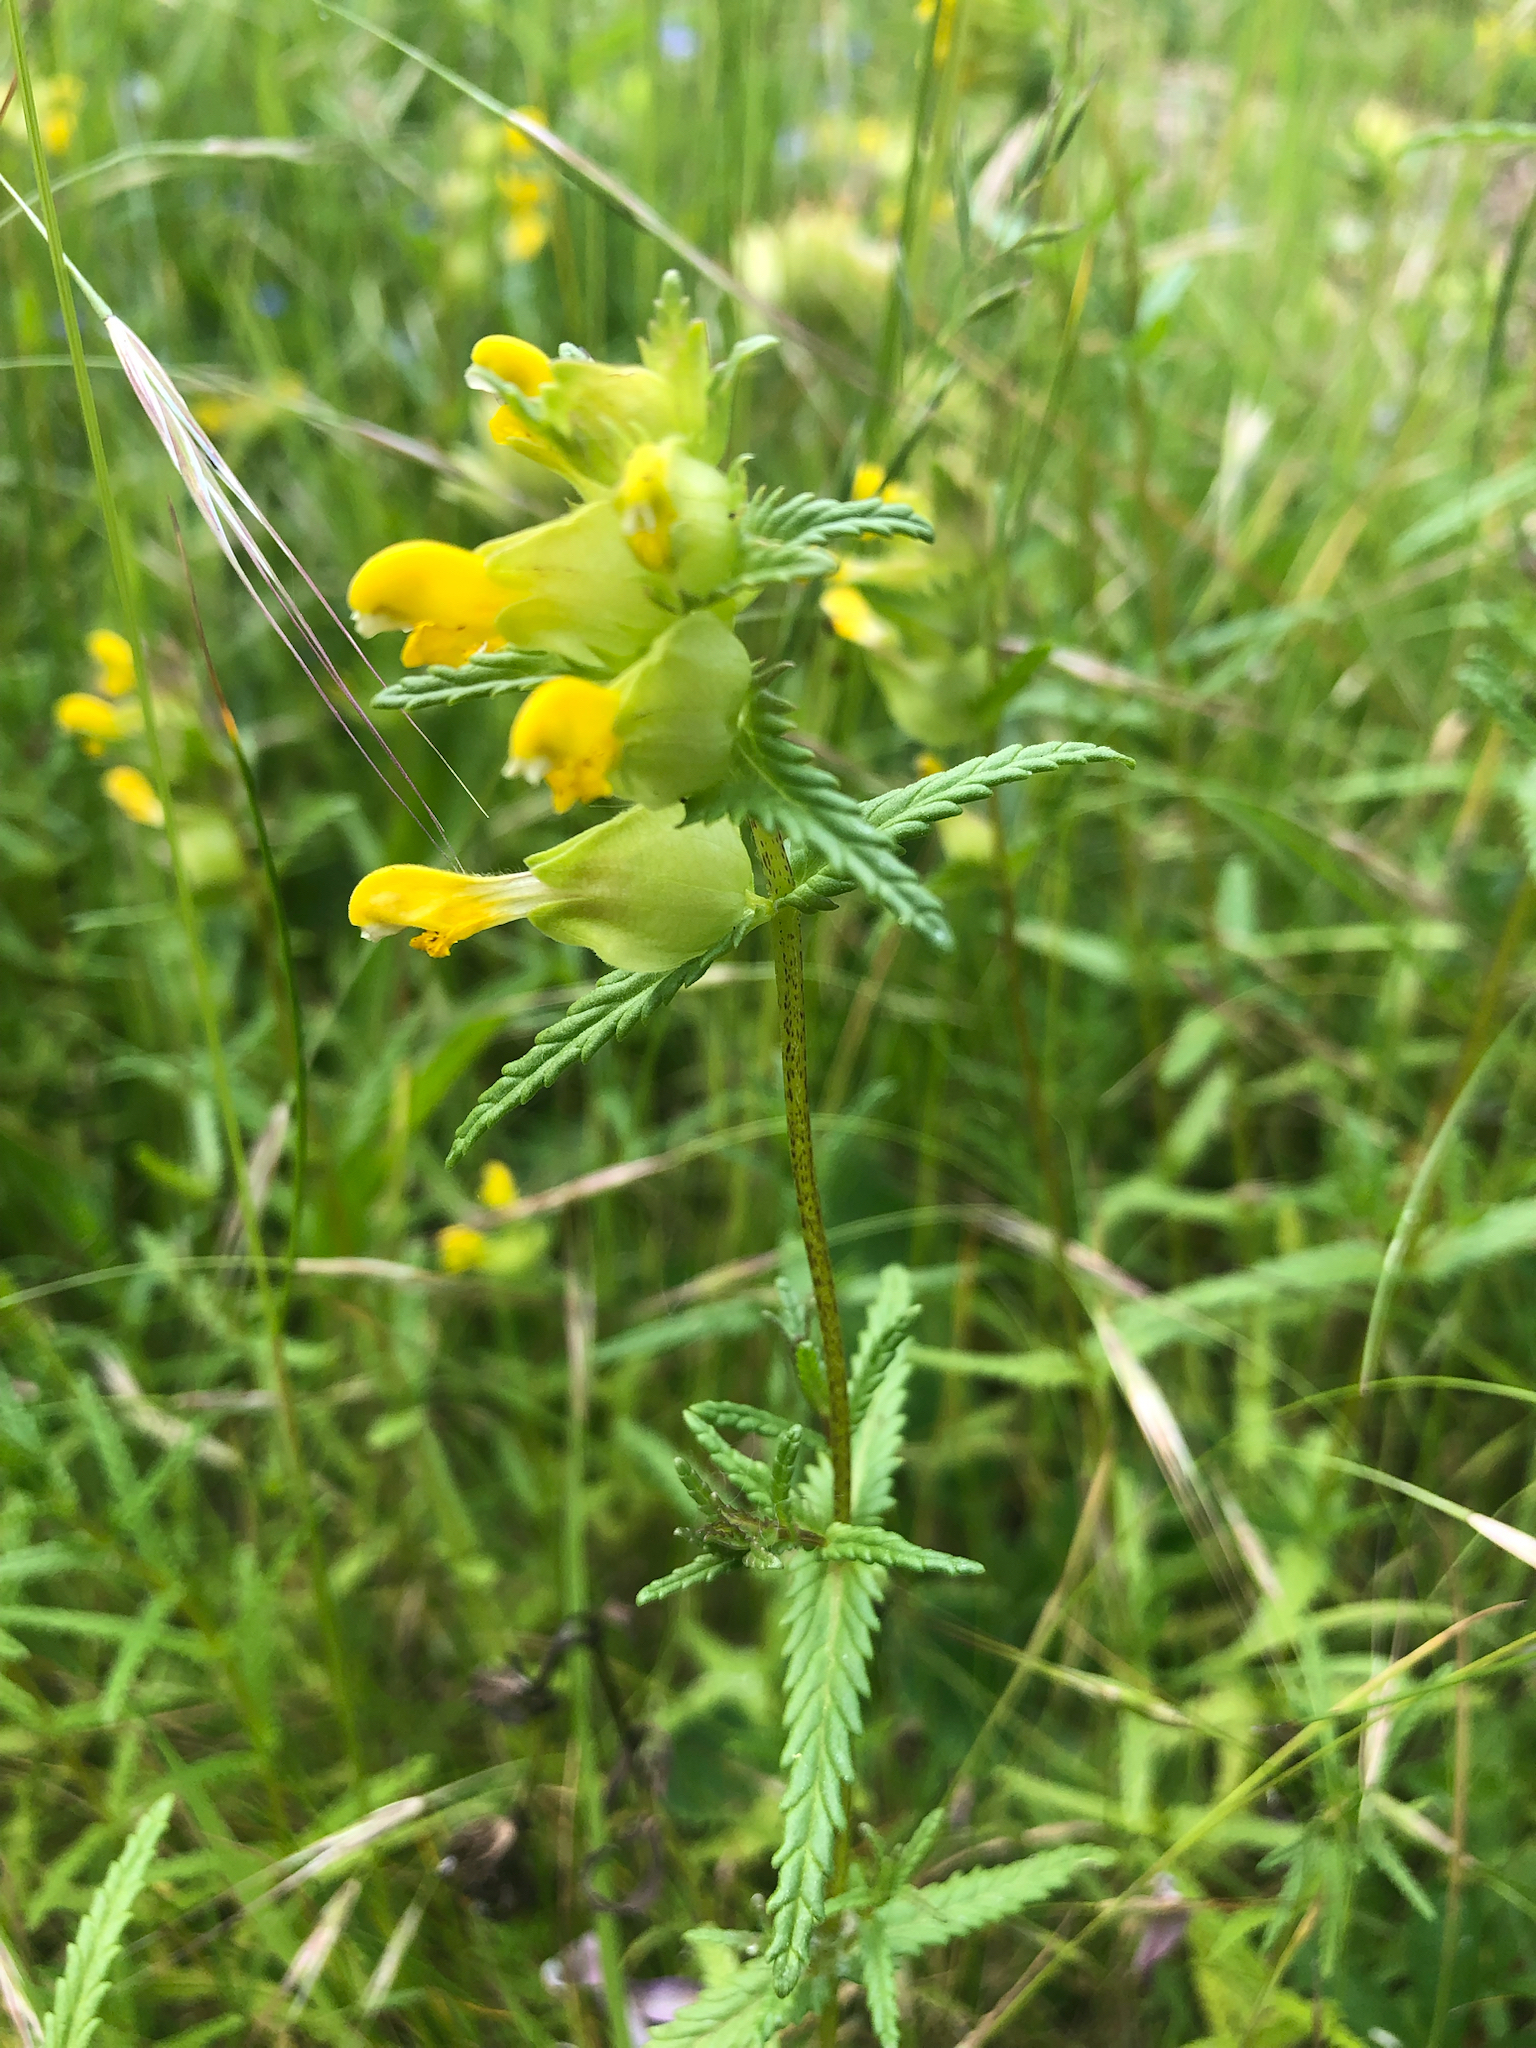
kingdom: Plantae
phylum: Tracheophyta
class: Magnoliopsida
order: Lamiales
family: Orobanchaceae
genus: Rhinanthus
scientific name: Rhinanthus minor
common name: Yellow-rattle
